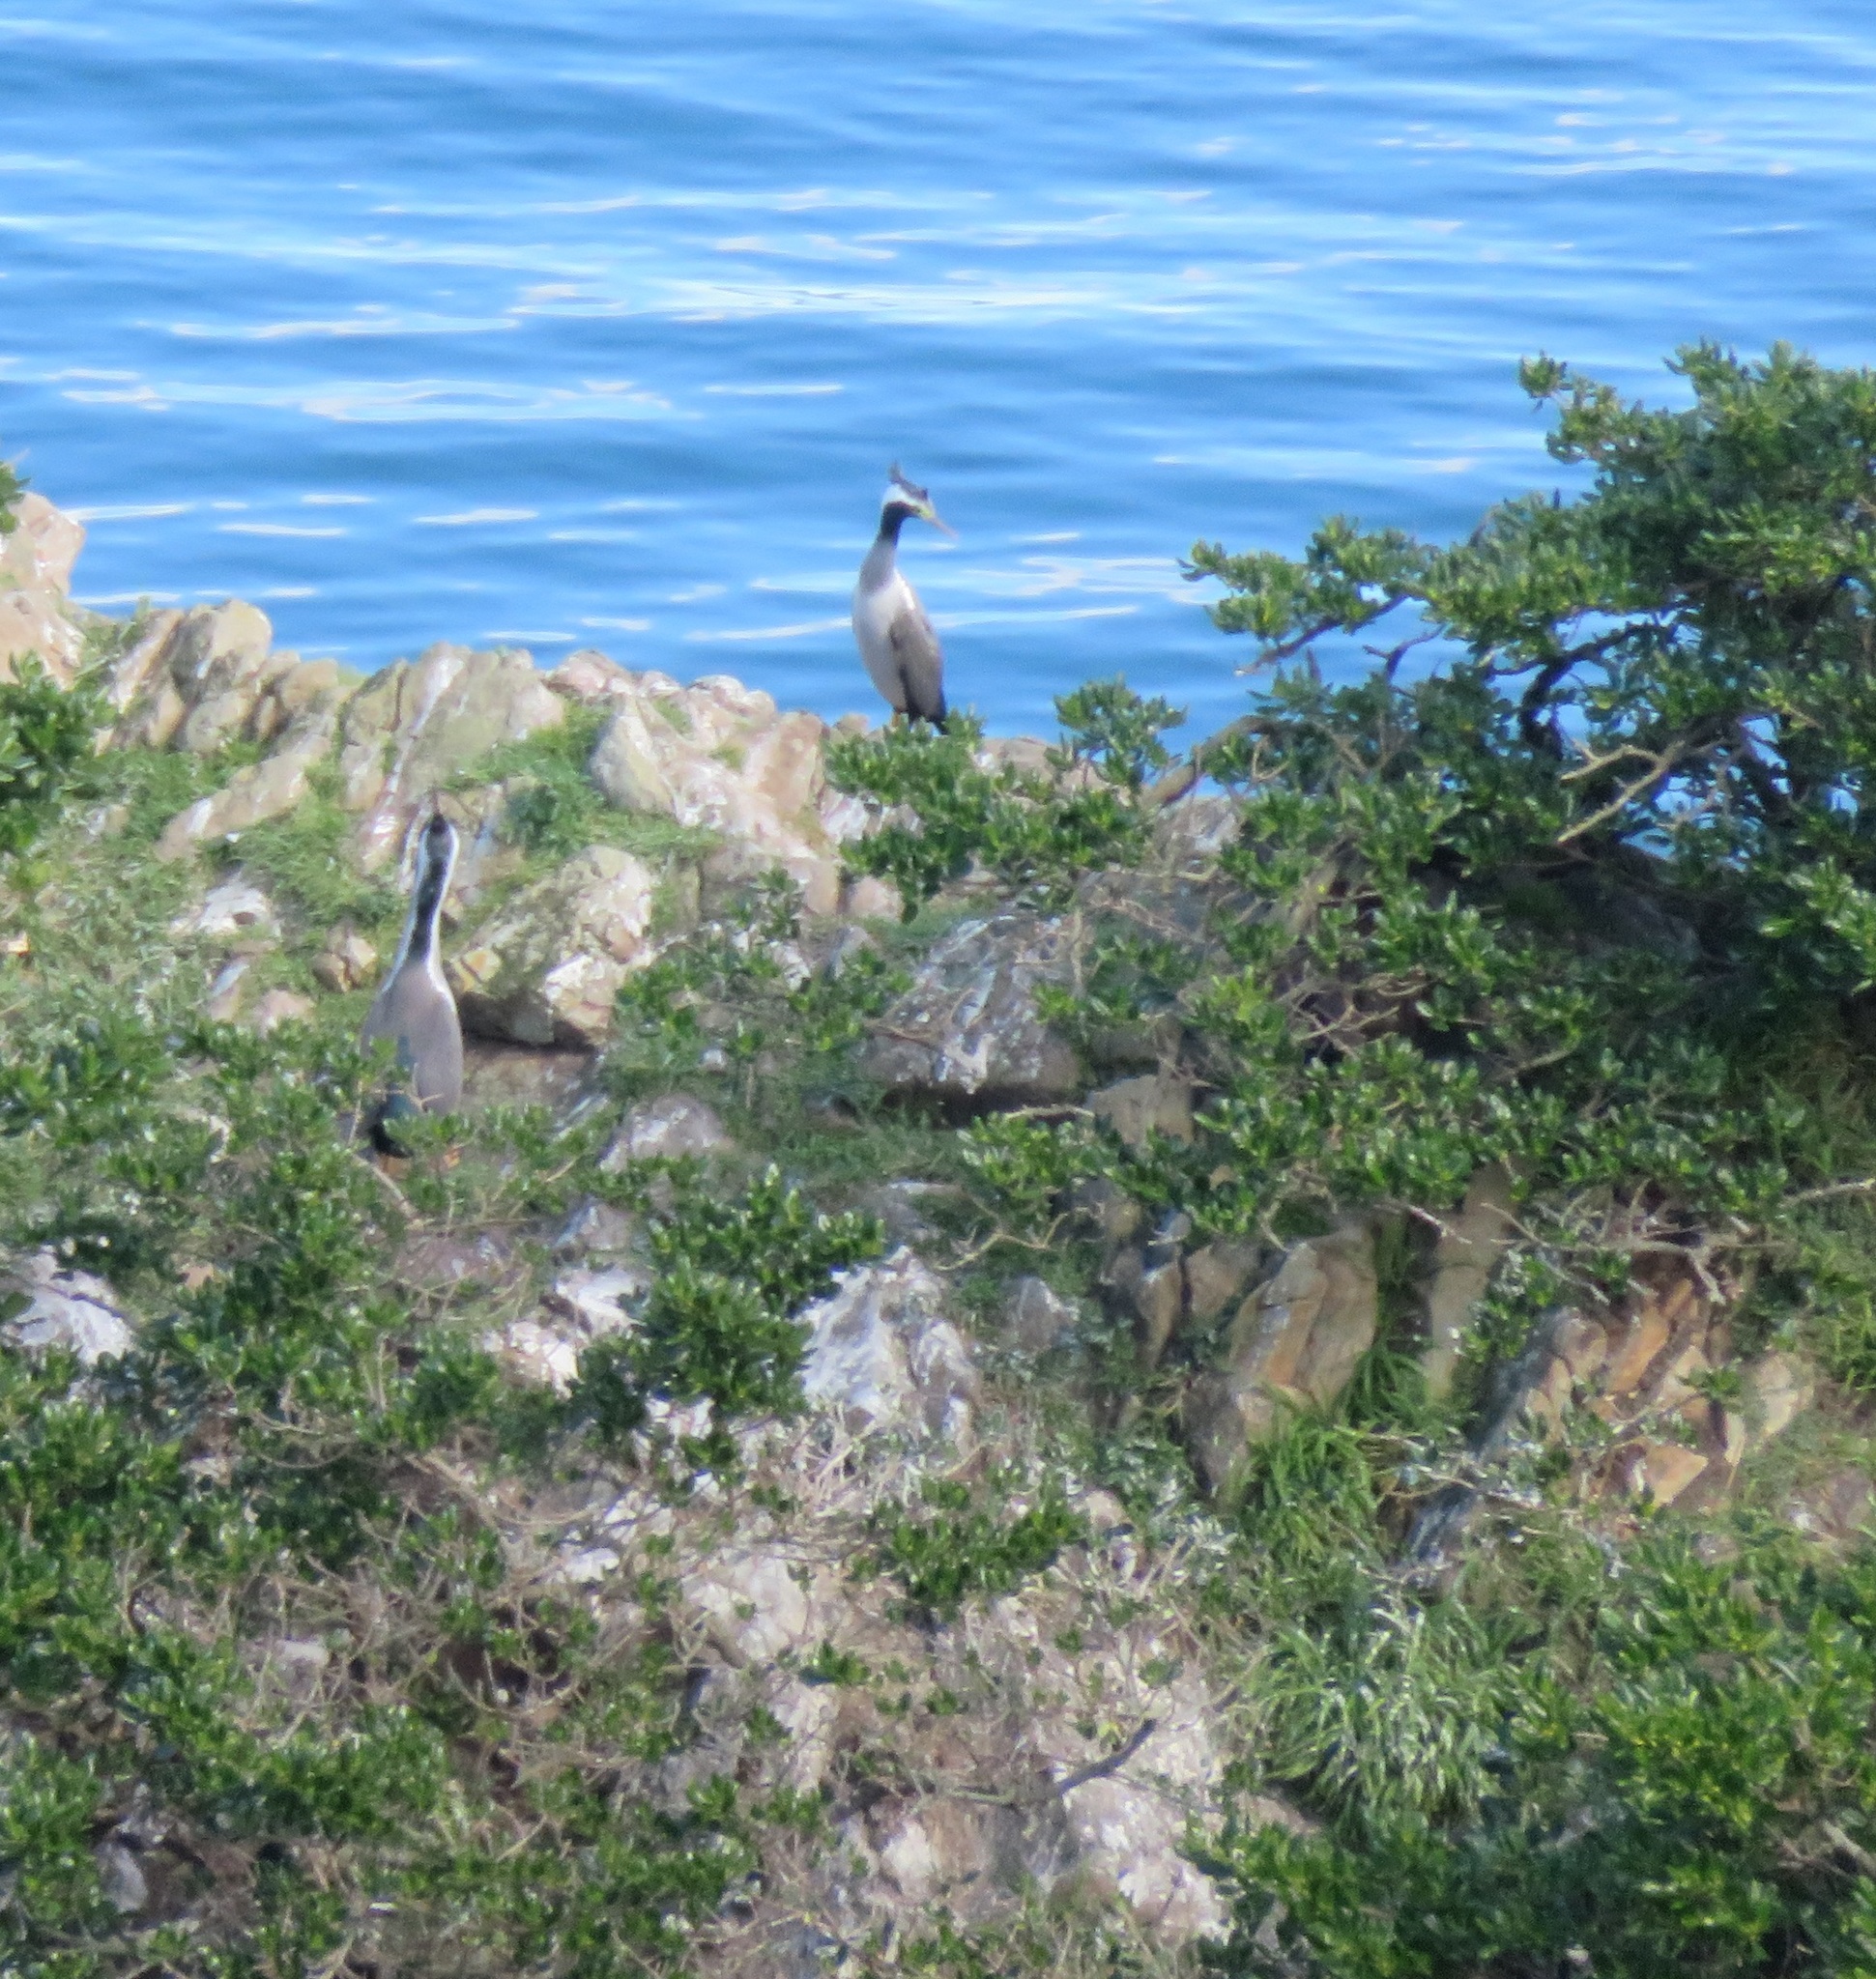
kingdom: Animalia
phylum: Chordata
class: Aves
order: Suliformes
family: Phalacrocoracidae
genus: Phalacrocorax
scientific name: Phalacrocorax punctatus
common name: Spotted shag
